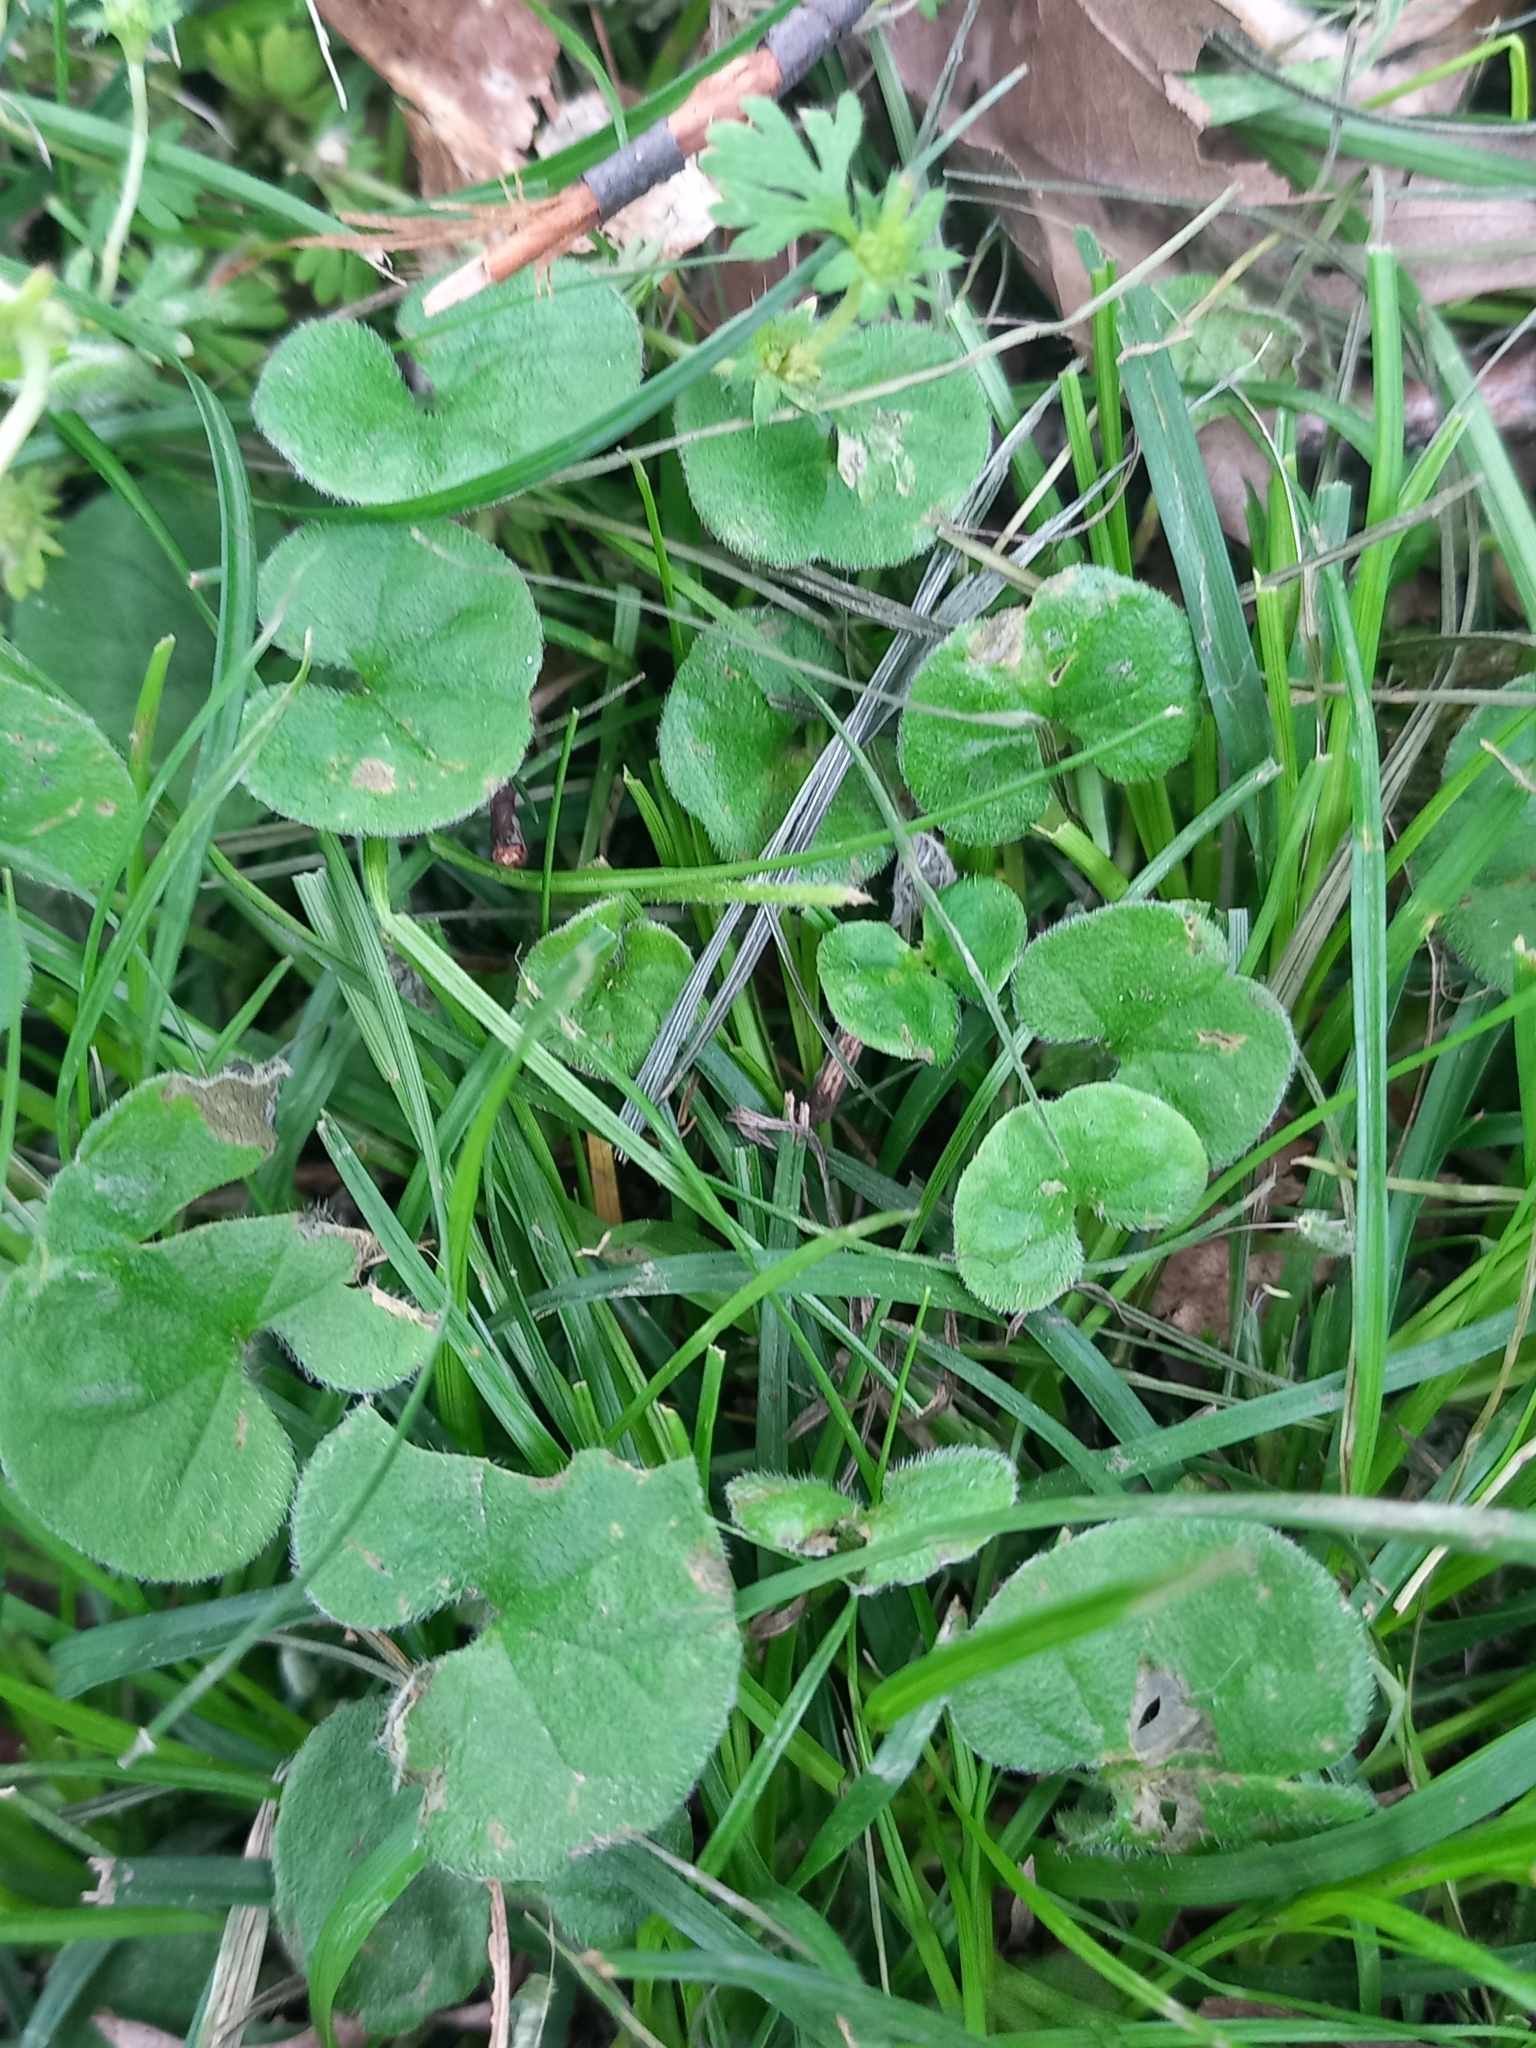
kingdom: Plantae
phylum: Tracheophyta
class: Magnoliopsida
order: Solanales
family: Convolvulaceae
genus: Dichondra
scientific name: Dichondra repens
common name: Kidneyweed
